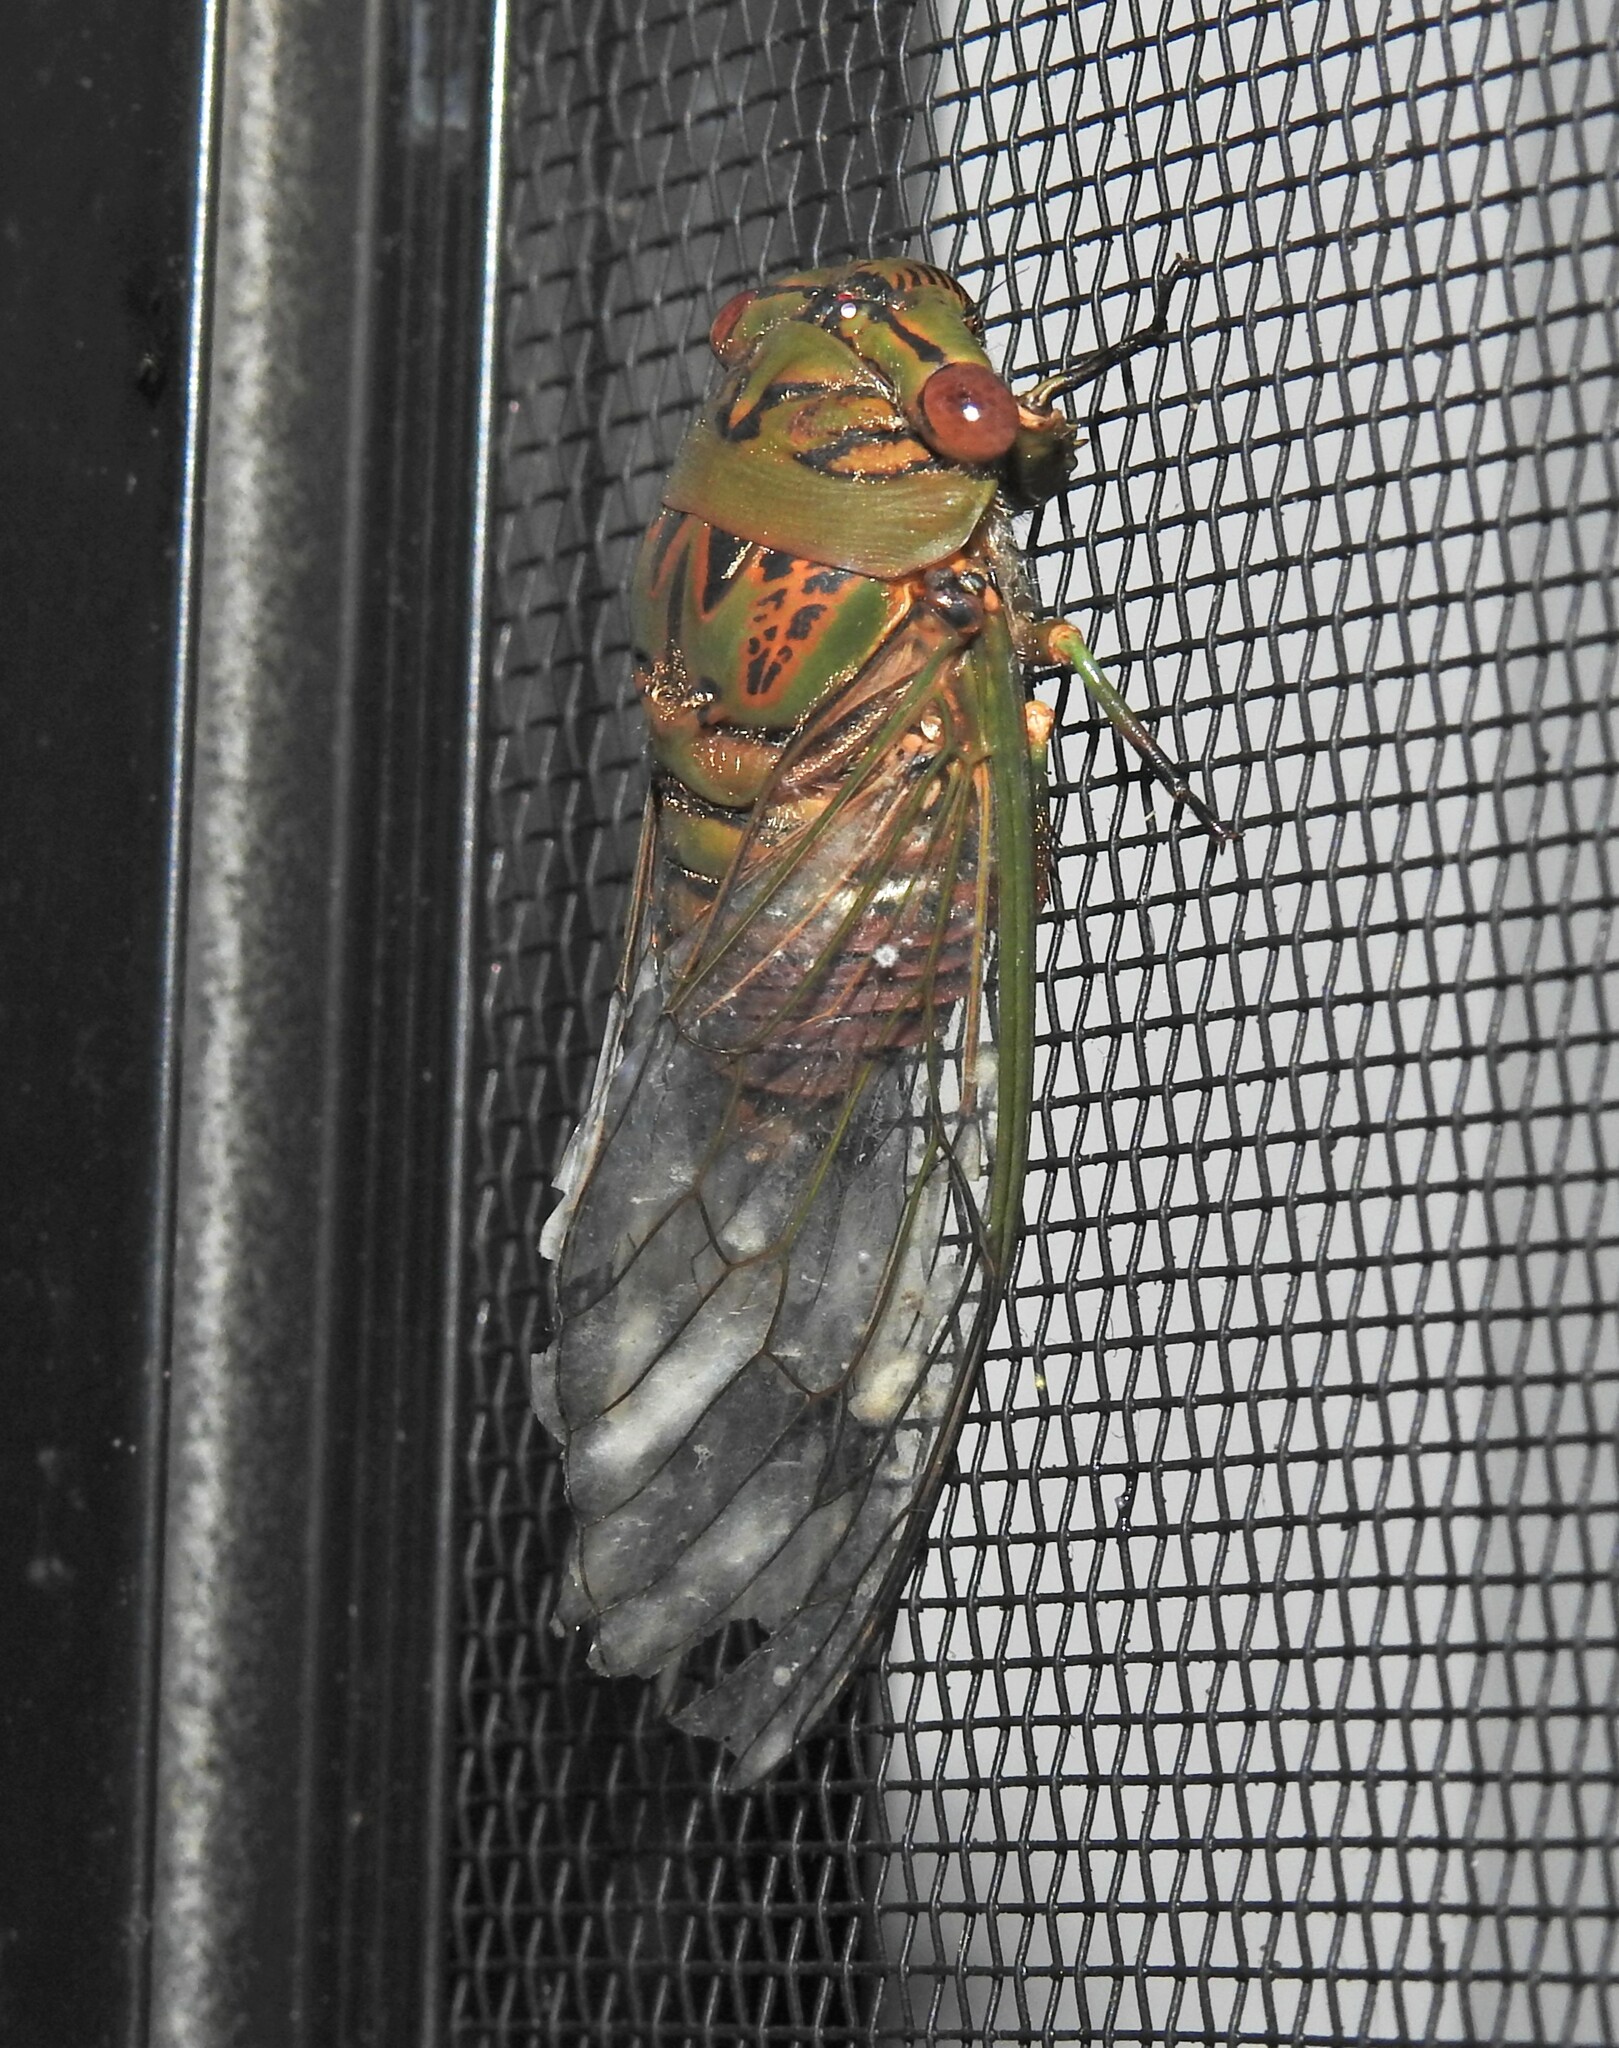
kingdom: Animalia
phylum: Arthropoda
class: Insecta
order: Hemiptera
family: Cicadidae
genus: Psaltoda
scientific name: Psaltoda brachypennis
